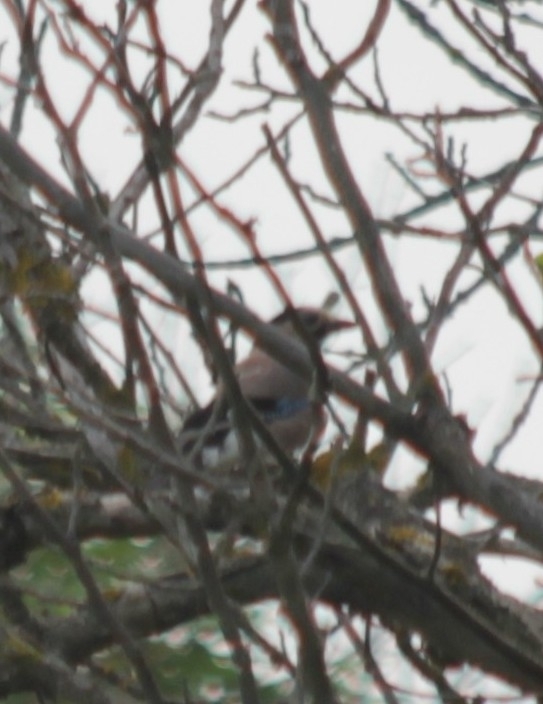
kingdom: Animalia
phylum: Chordata
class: Aves
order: Passeriformes
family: Corvidae
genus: Garrulus
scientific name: Garrulus glandarius
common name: Eurasian jay
